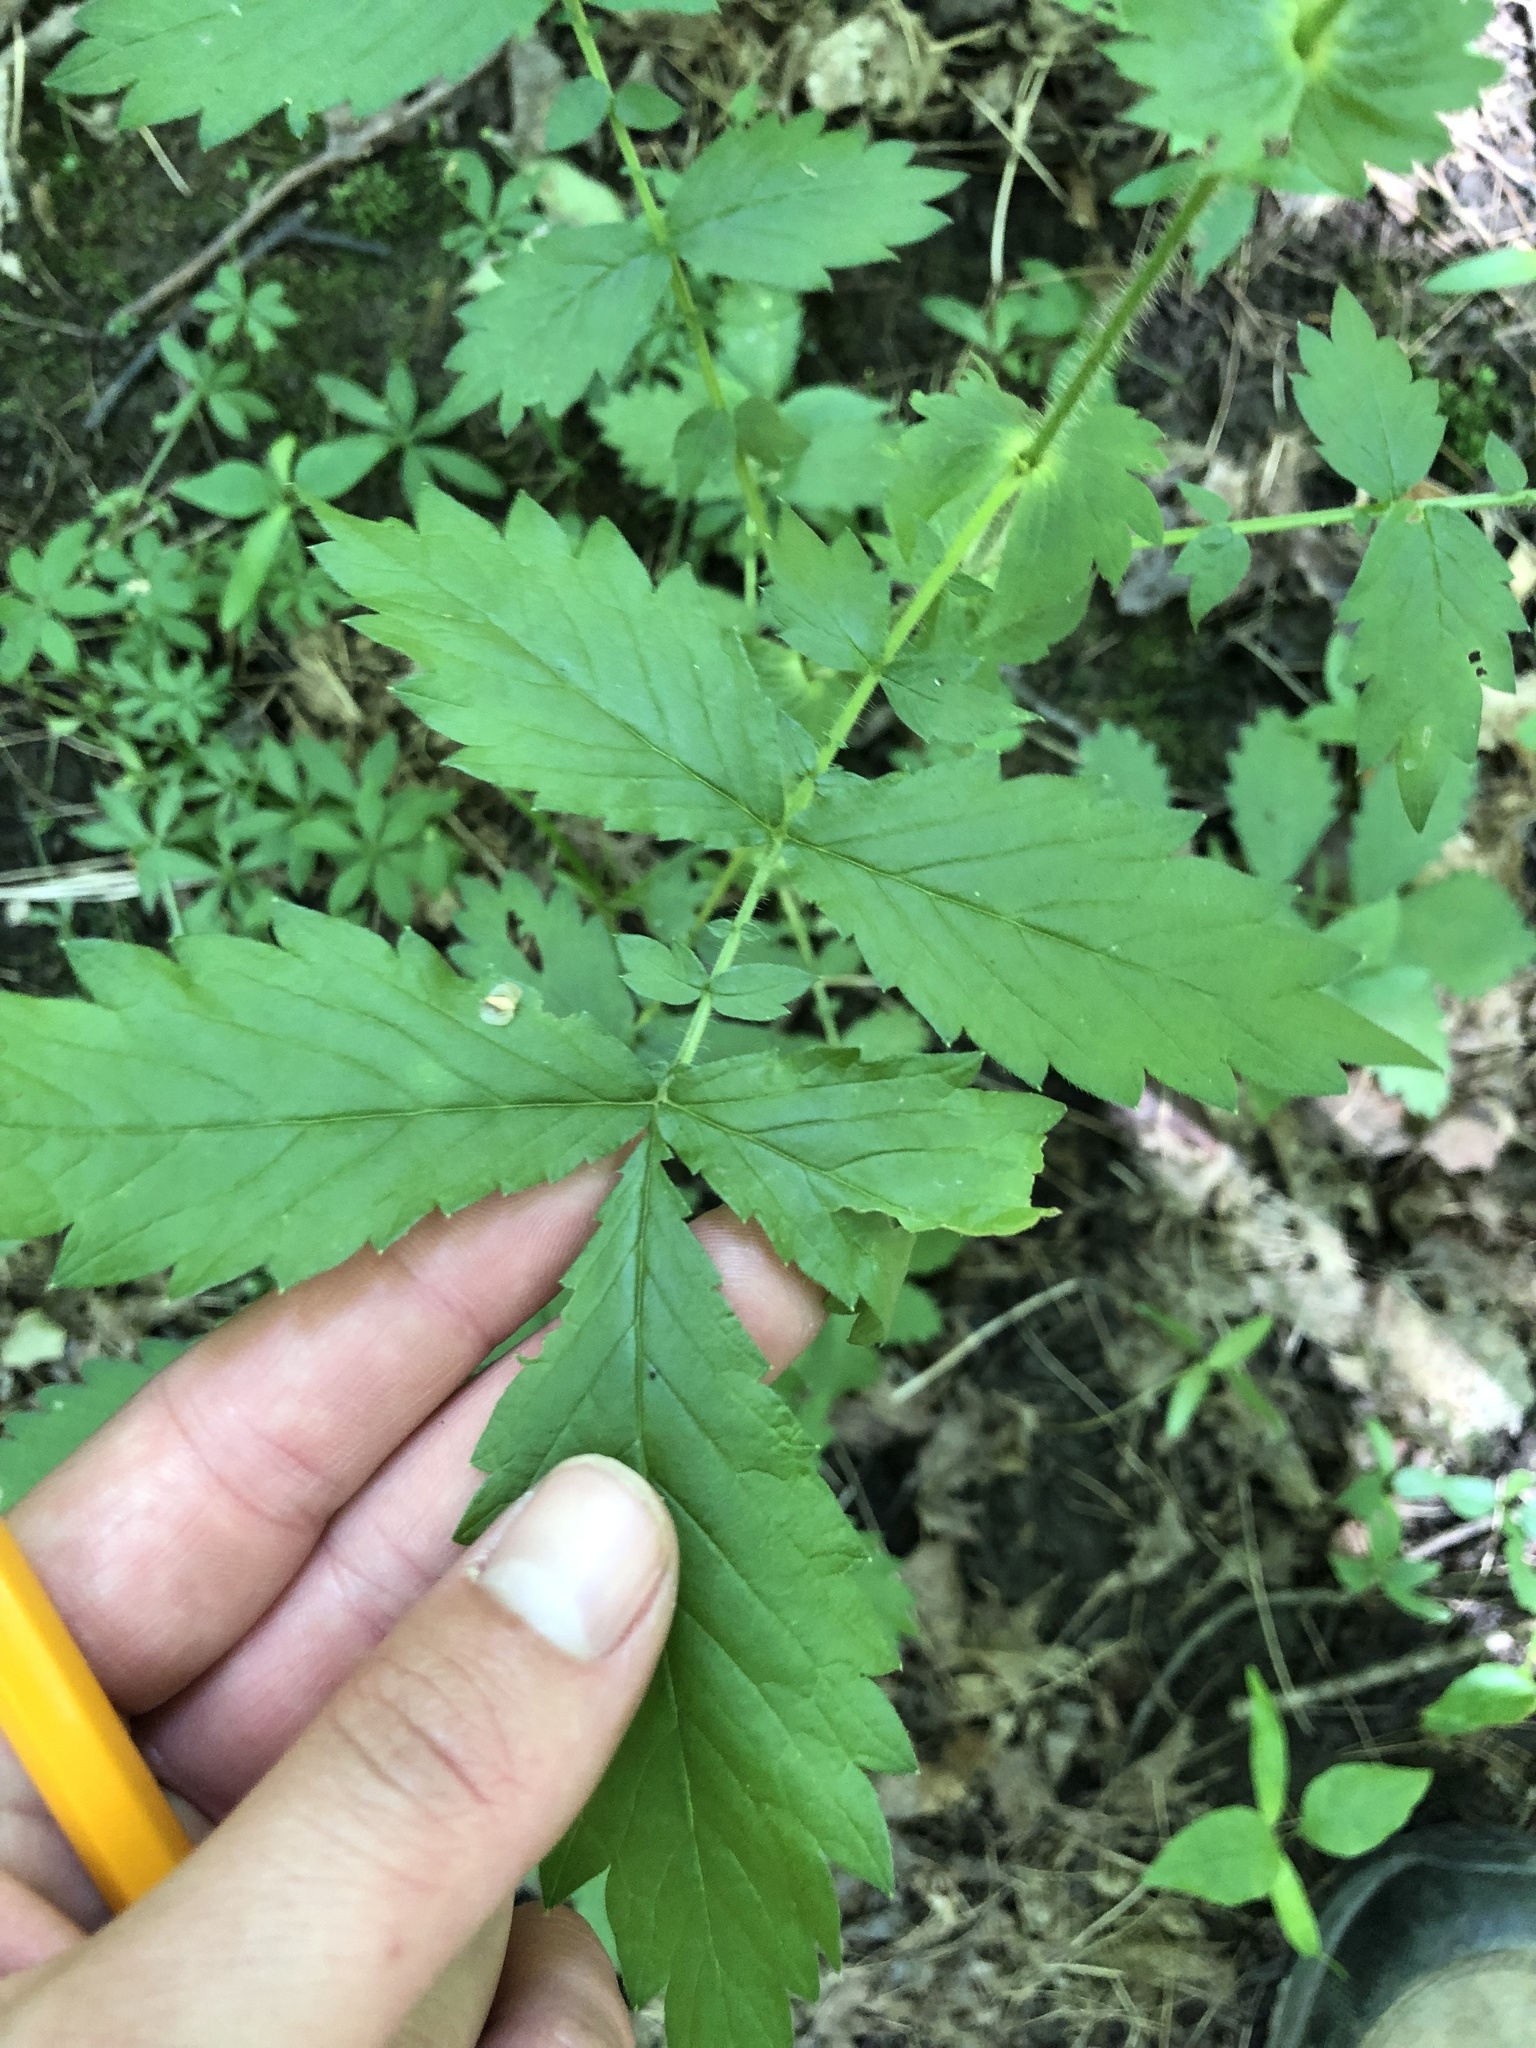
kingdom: Plantae
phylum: Tracheophyta
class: Magnoliopsida
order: Rosales
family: Rosaceae
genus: Agrimonia
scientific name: Agrimonia gryposepala
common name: Common agrimony
